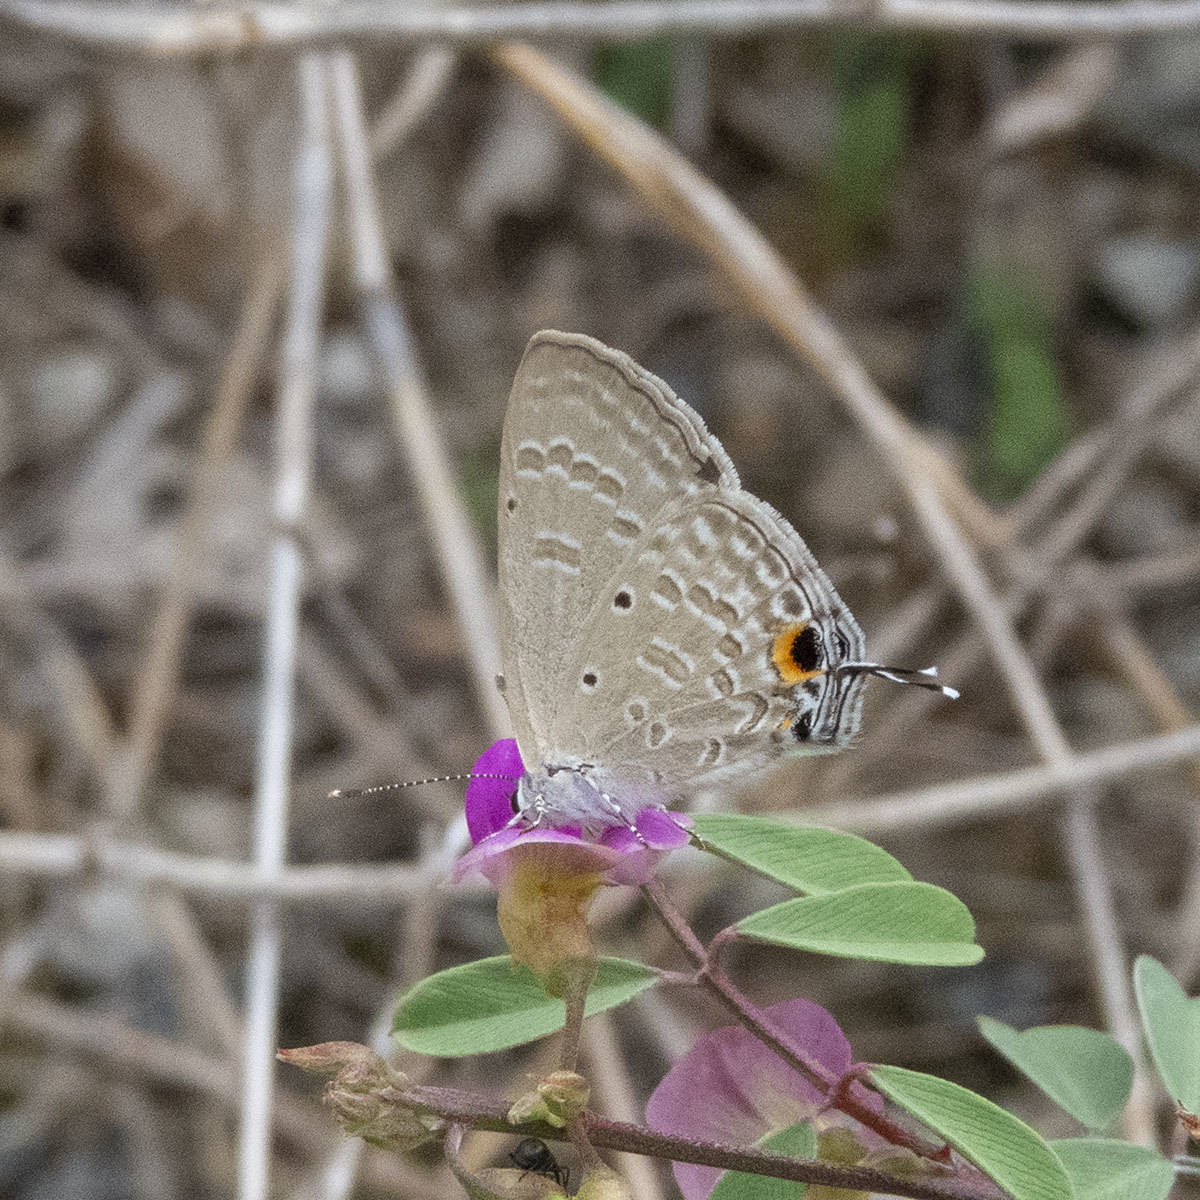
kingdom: Animalia
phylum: Arthropoda
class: Insecta
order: Lepidoptera
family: Lycaenidae
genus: Catochrysops
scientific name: Catochrysops strabo
